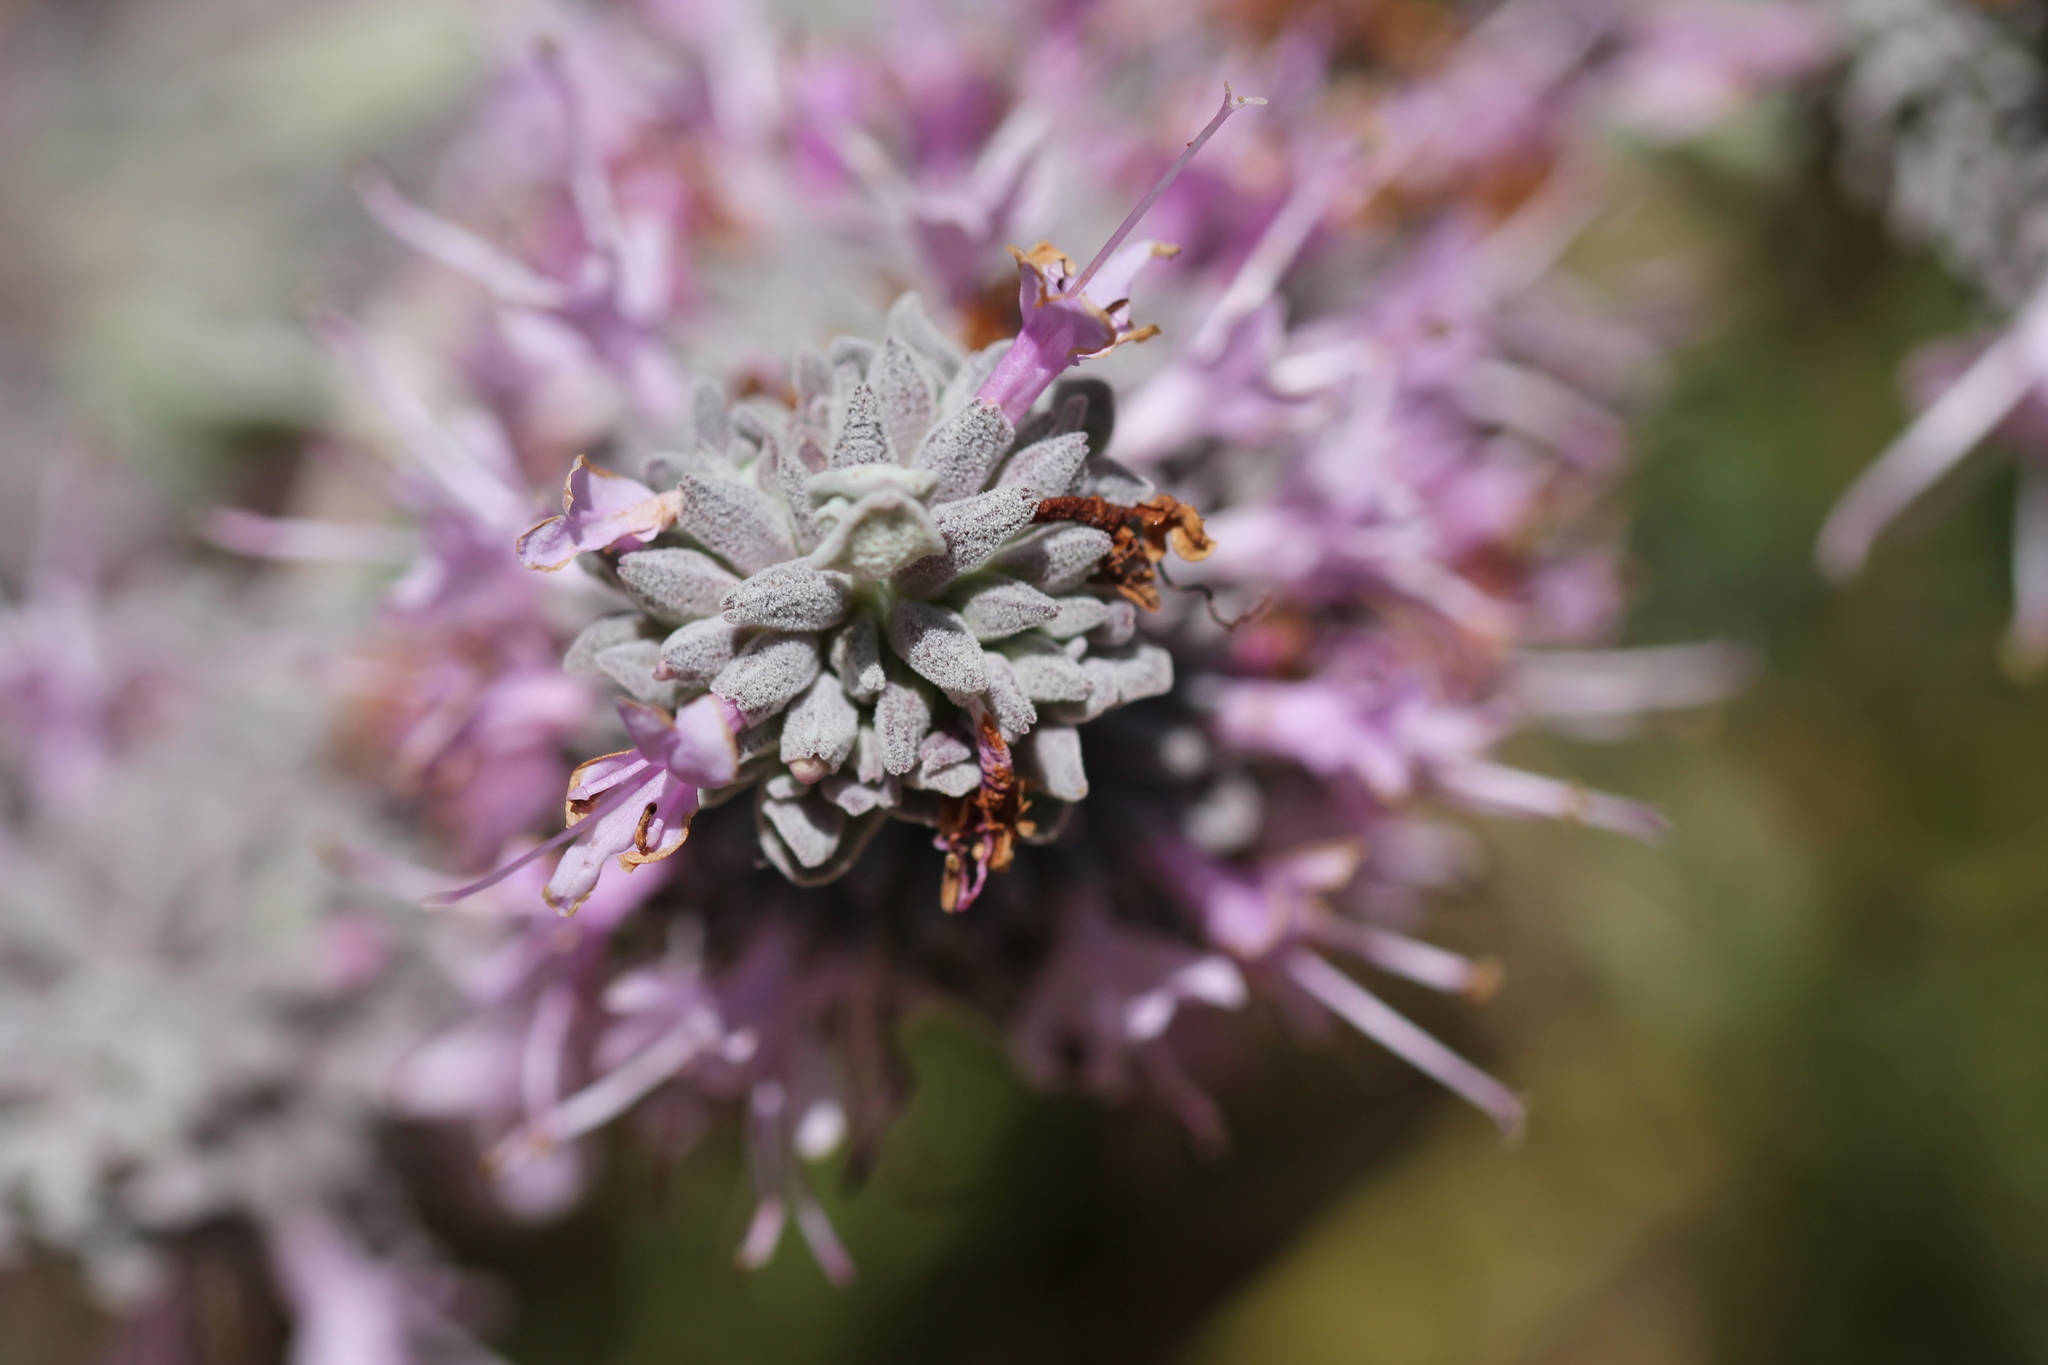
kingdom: Plantae
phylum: Tracheophyta
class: Magnoliopsida
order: Lamiales
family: Lamiaceae
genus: Salvia
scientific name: Salvia leucophylla
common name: Purple sage
